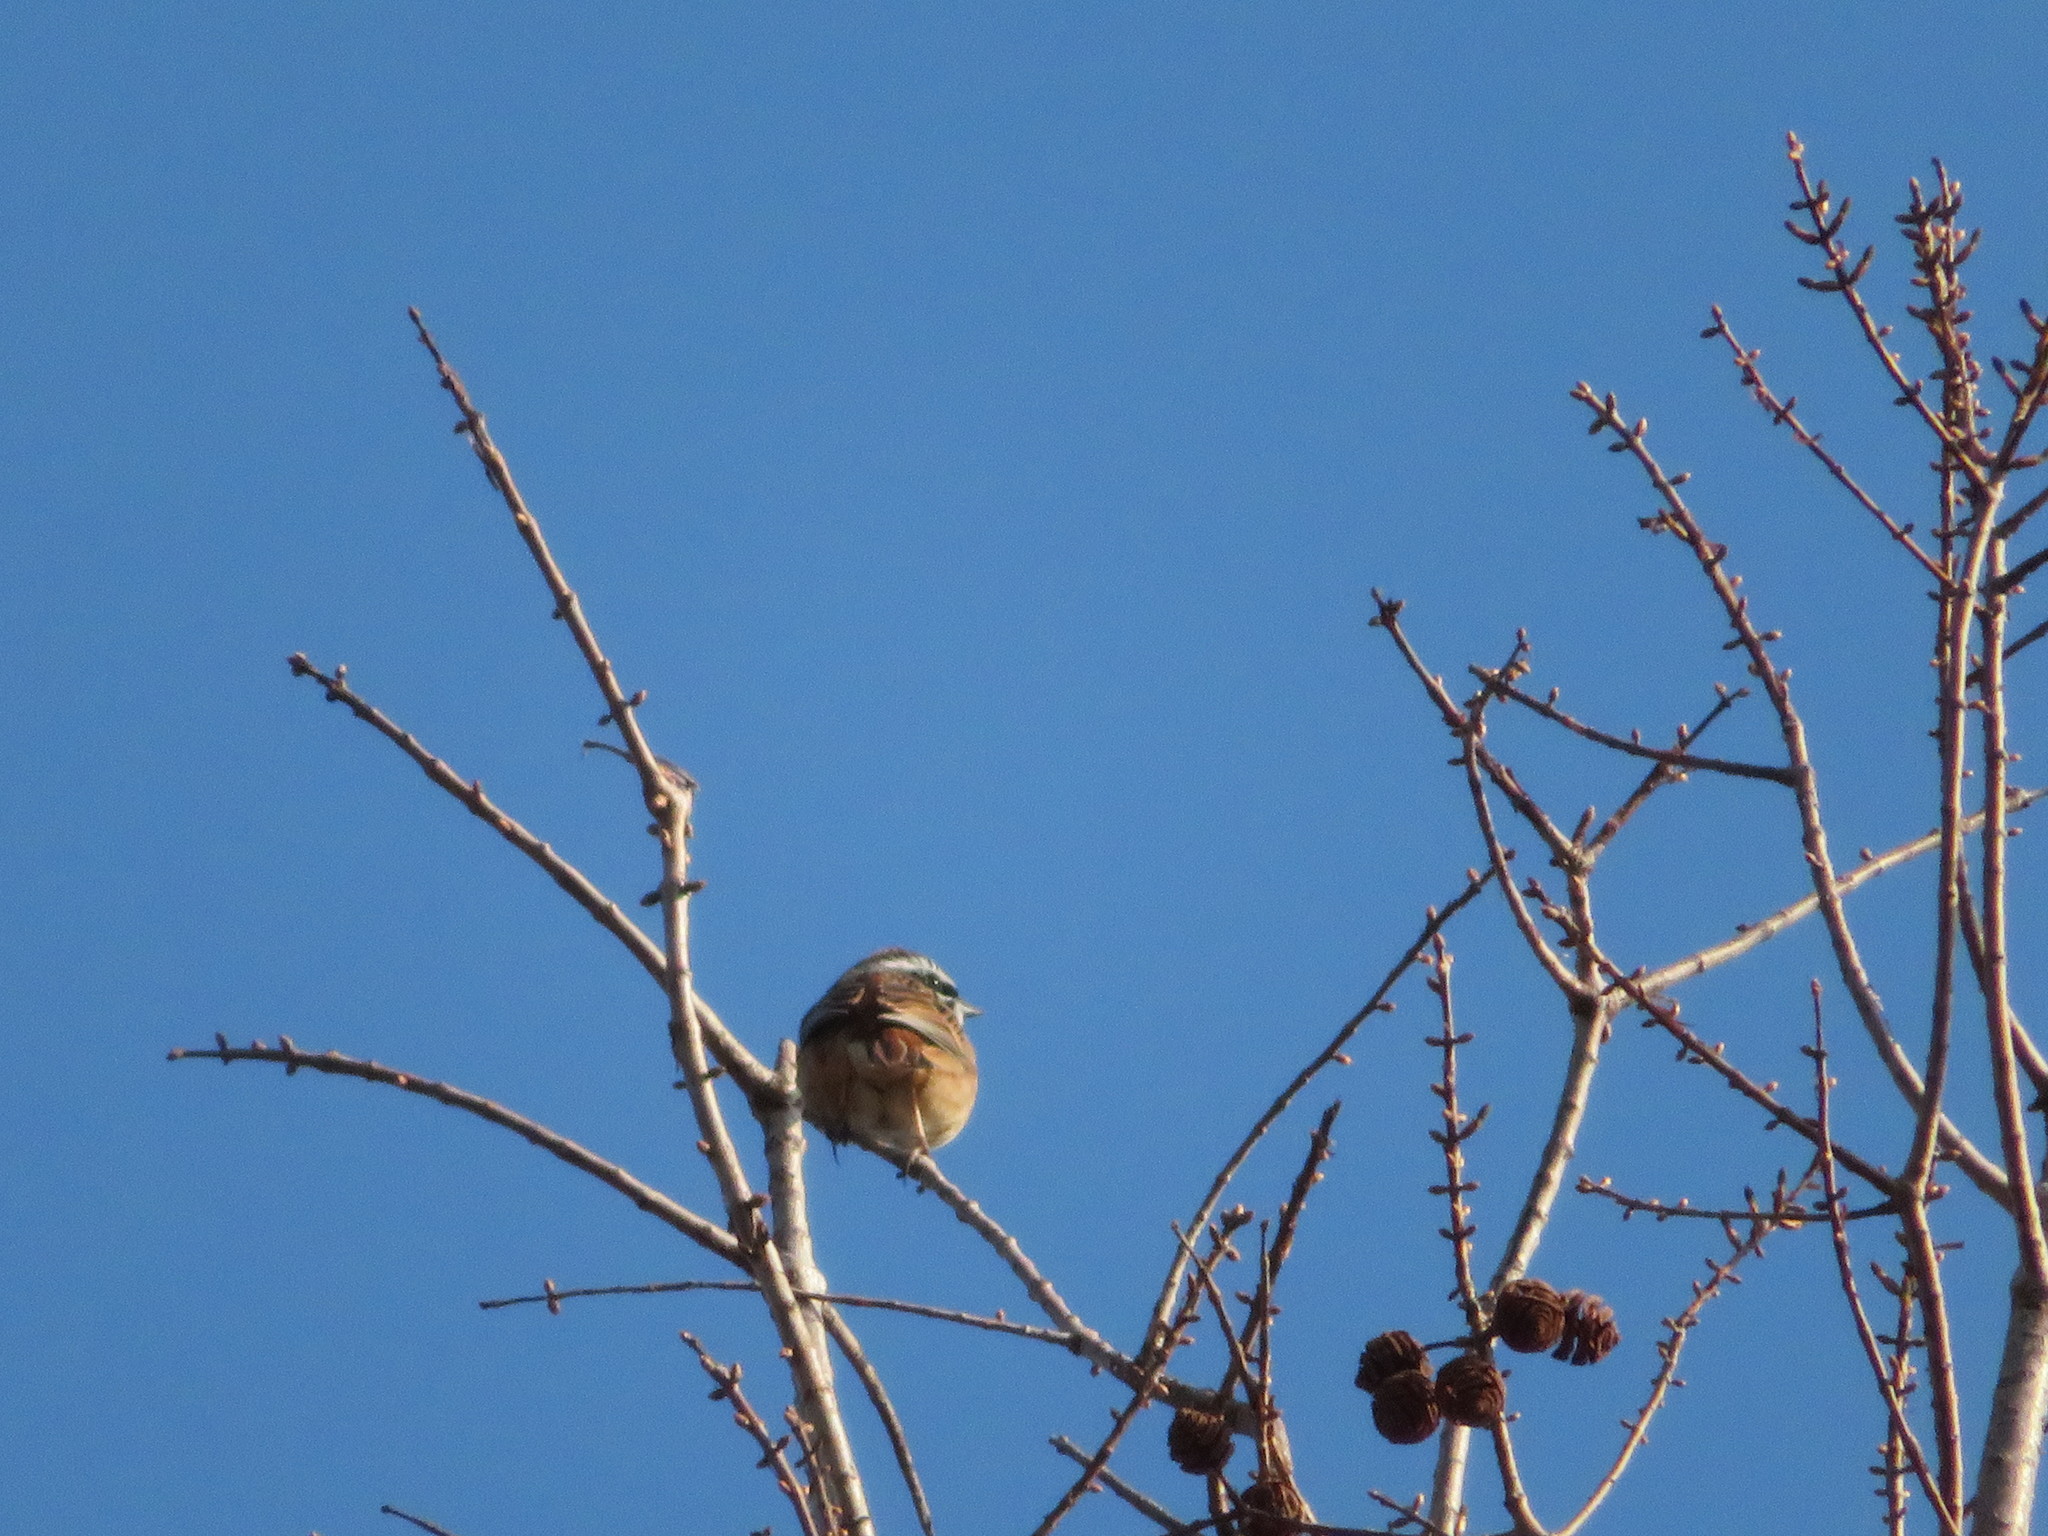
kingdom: Animalia
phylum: Chordata
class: Aves
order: Passeriformes
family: Emberizidae
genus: Emberiza
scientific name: Emberiza cioides
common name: Meadow bunting
